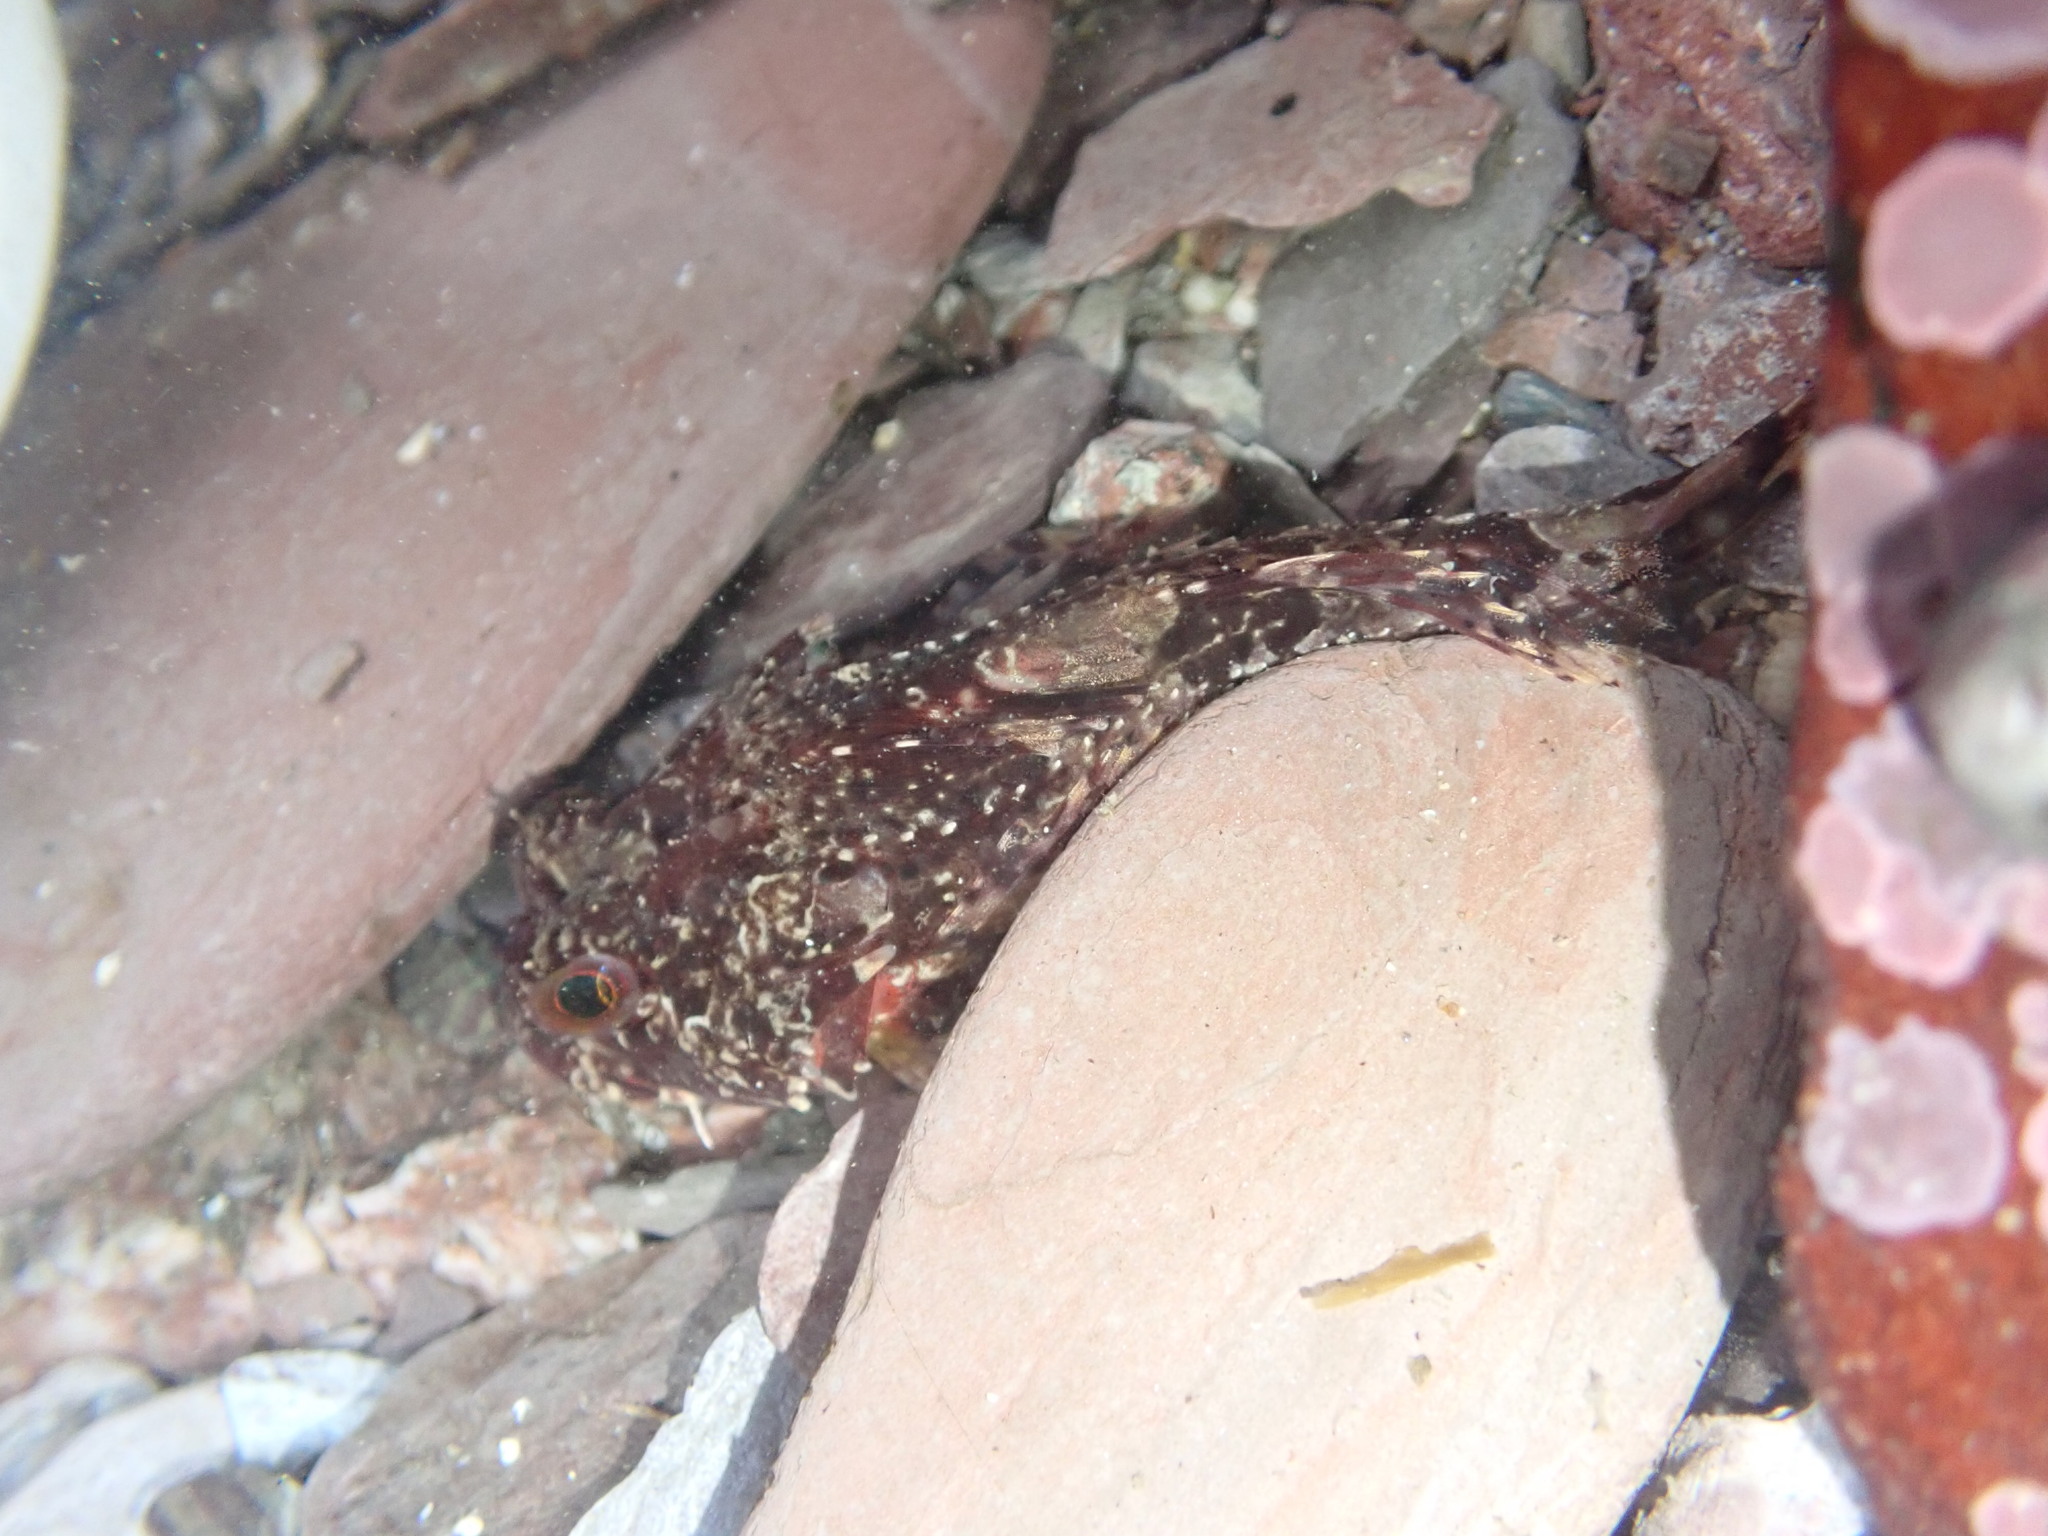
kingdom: Animalia
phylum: Chordata
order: Scorpaeniformes
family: Cottidae
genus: Taurulus
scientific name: Taurulus bubalis
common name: Sea scorpion
